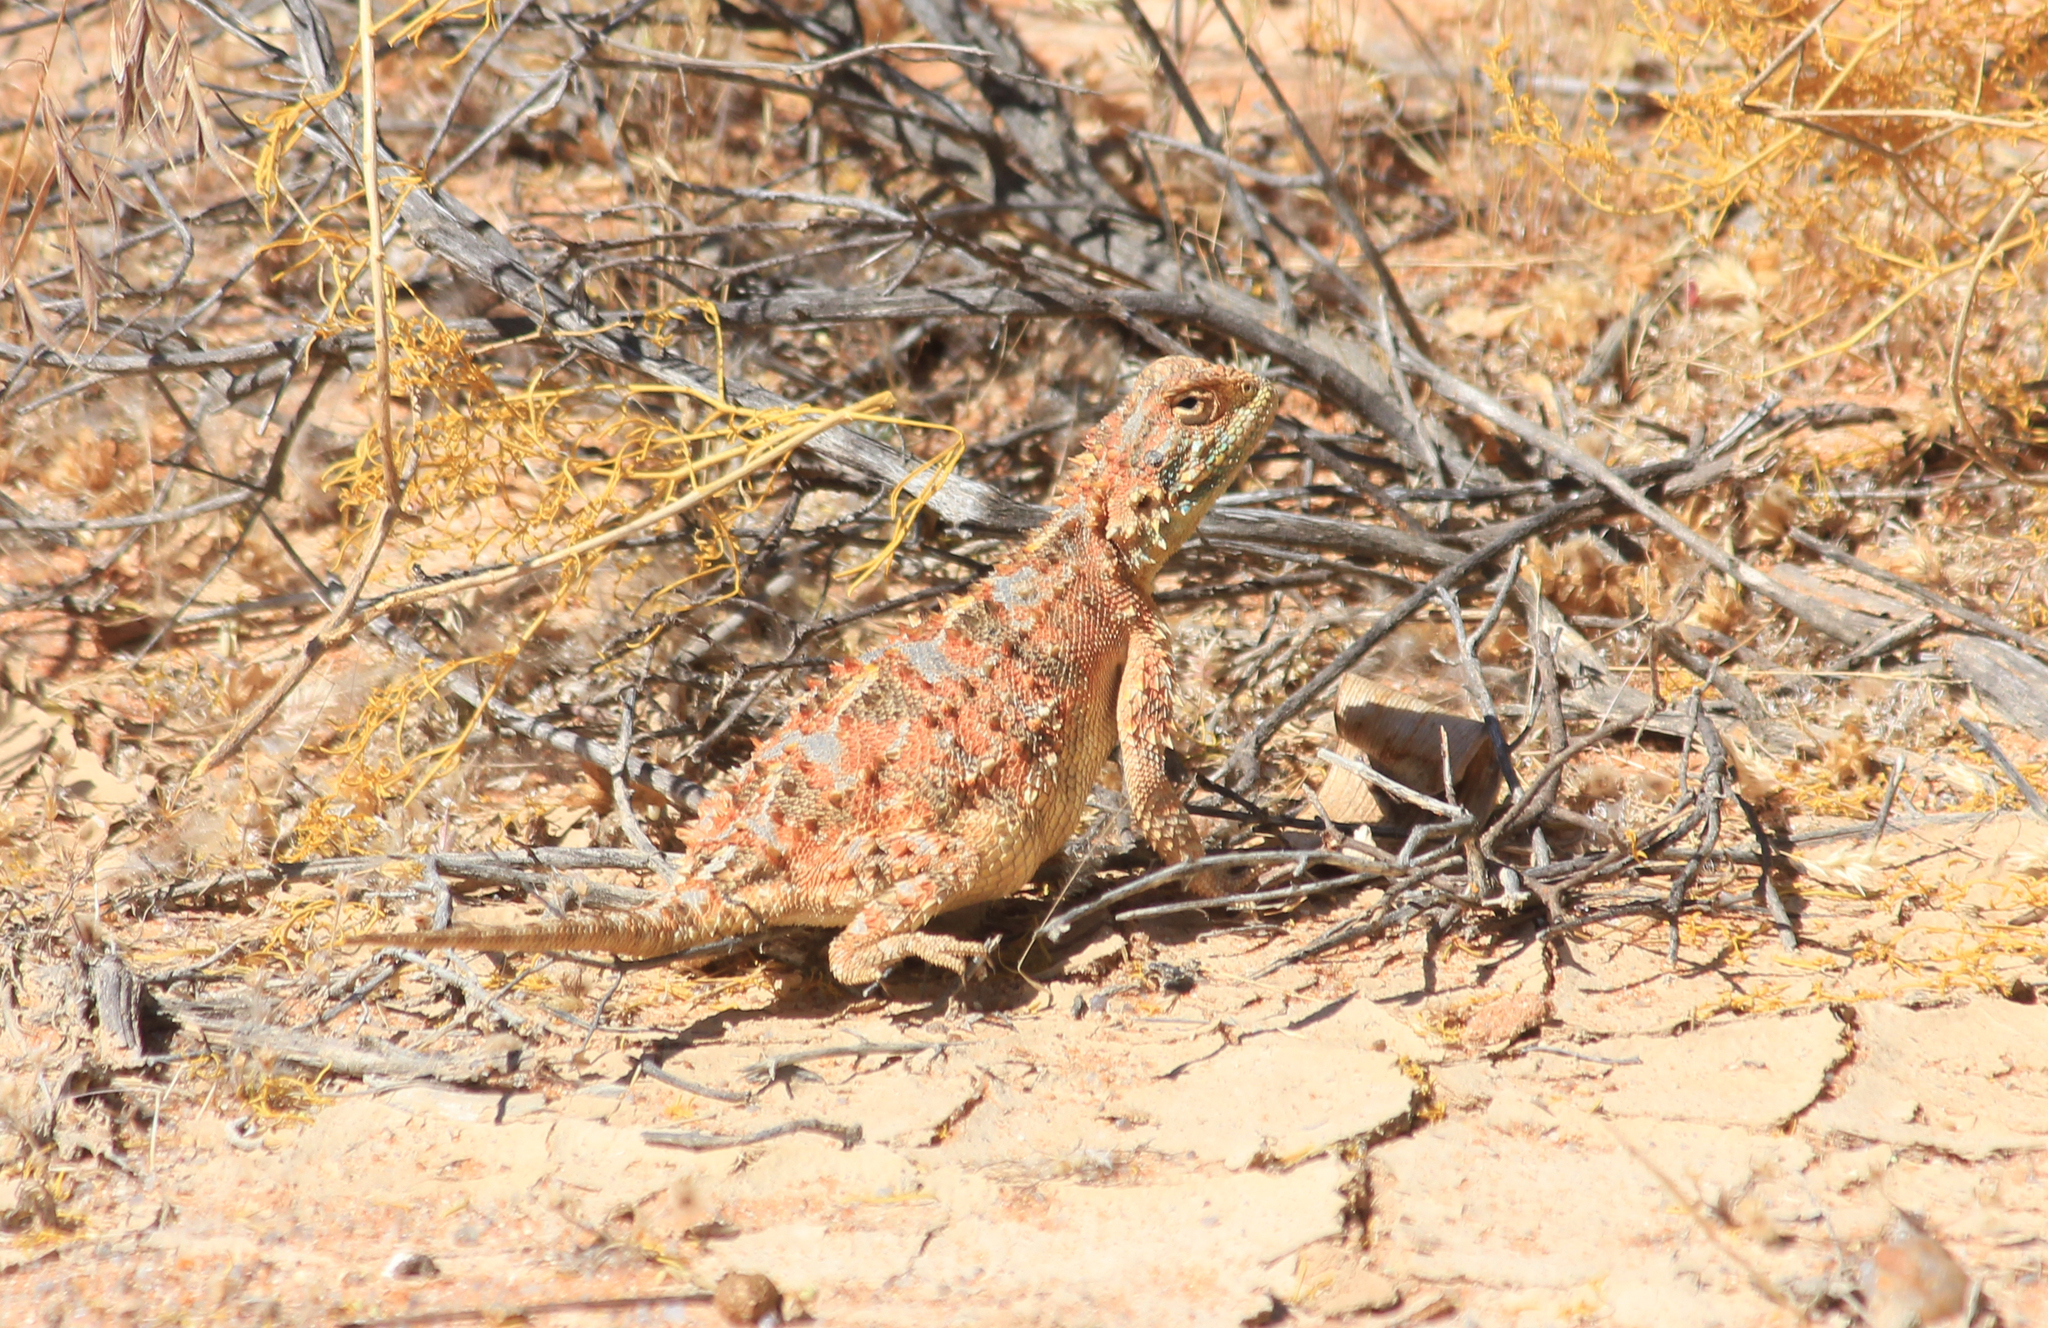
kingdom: Animalia
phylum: Chordata
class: Squamata
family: Agamidae
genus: Agama
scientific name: Agama hispida
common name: Common spiny agama
